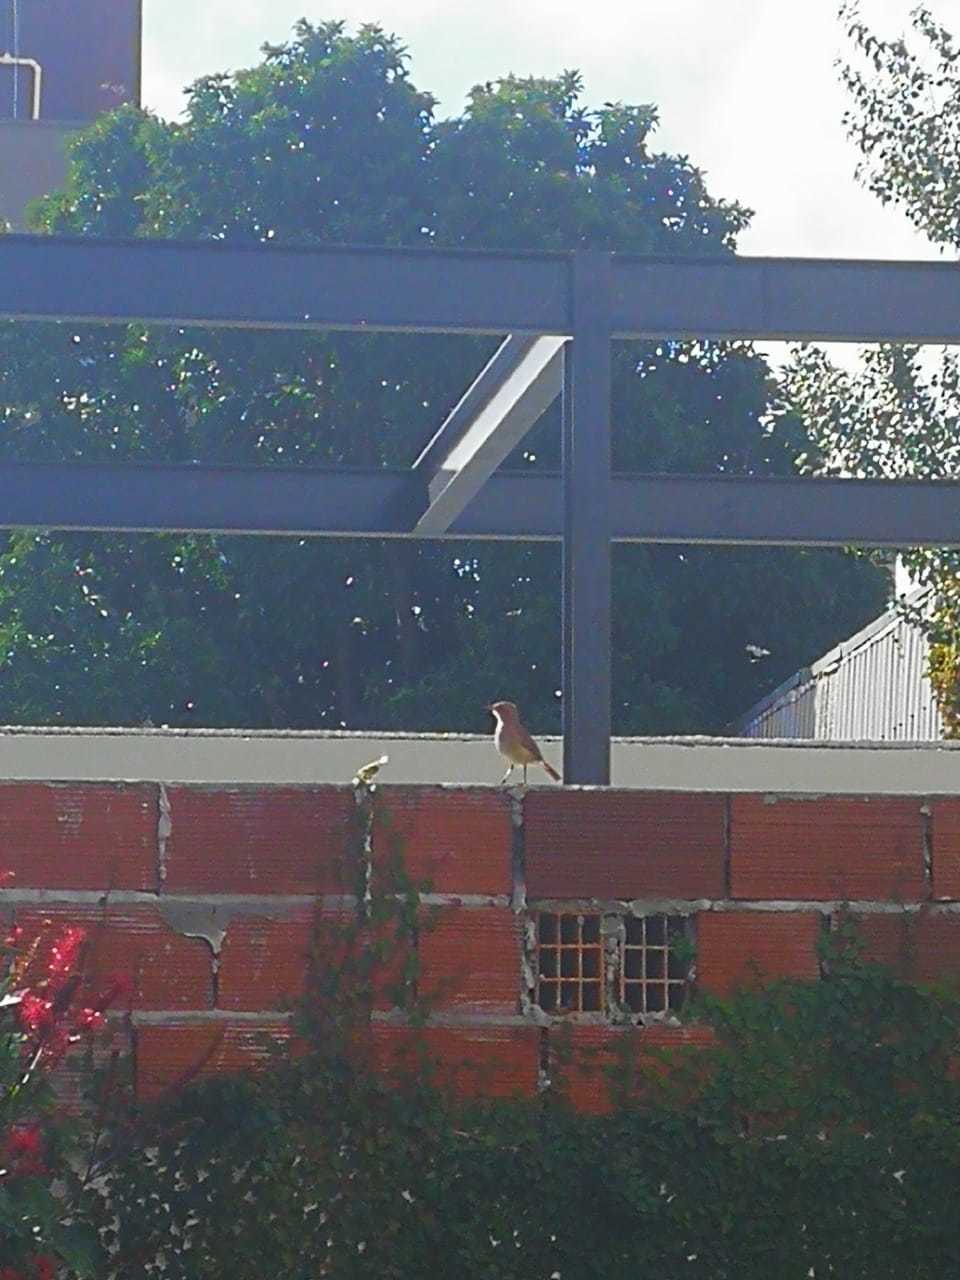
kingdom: Animalia
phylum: Chordata
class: Aves
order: Passeriformes
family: Furnariidae
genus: Furnarius
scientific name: Furnarius rufus
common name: Rufous hornero
